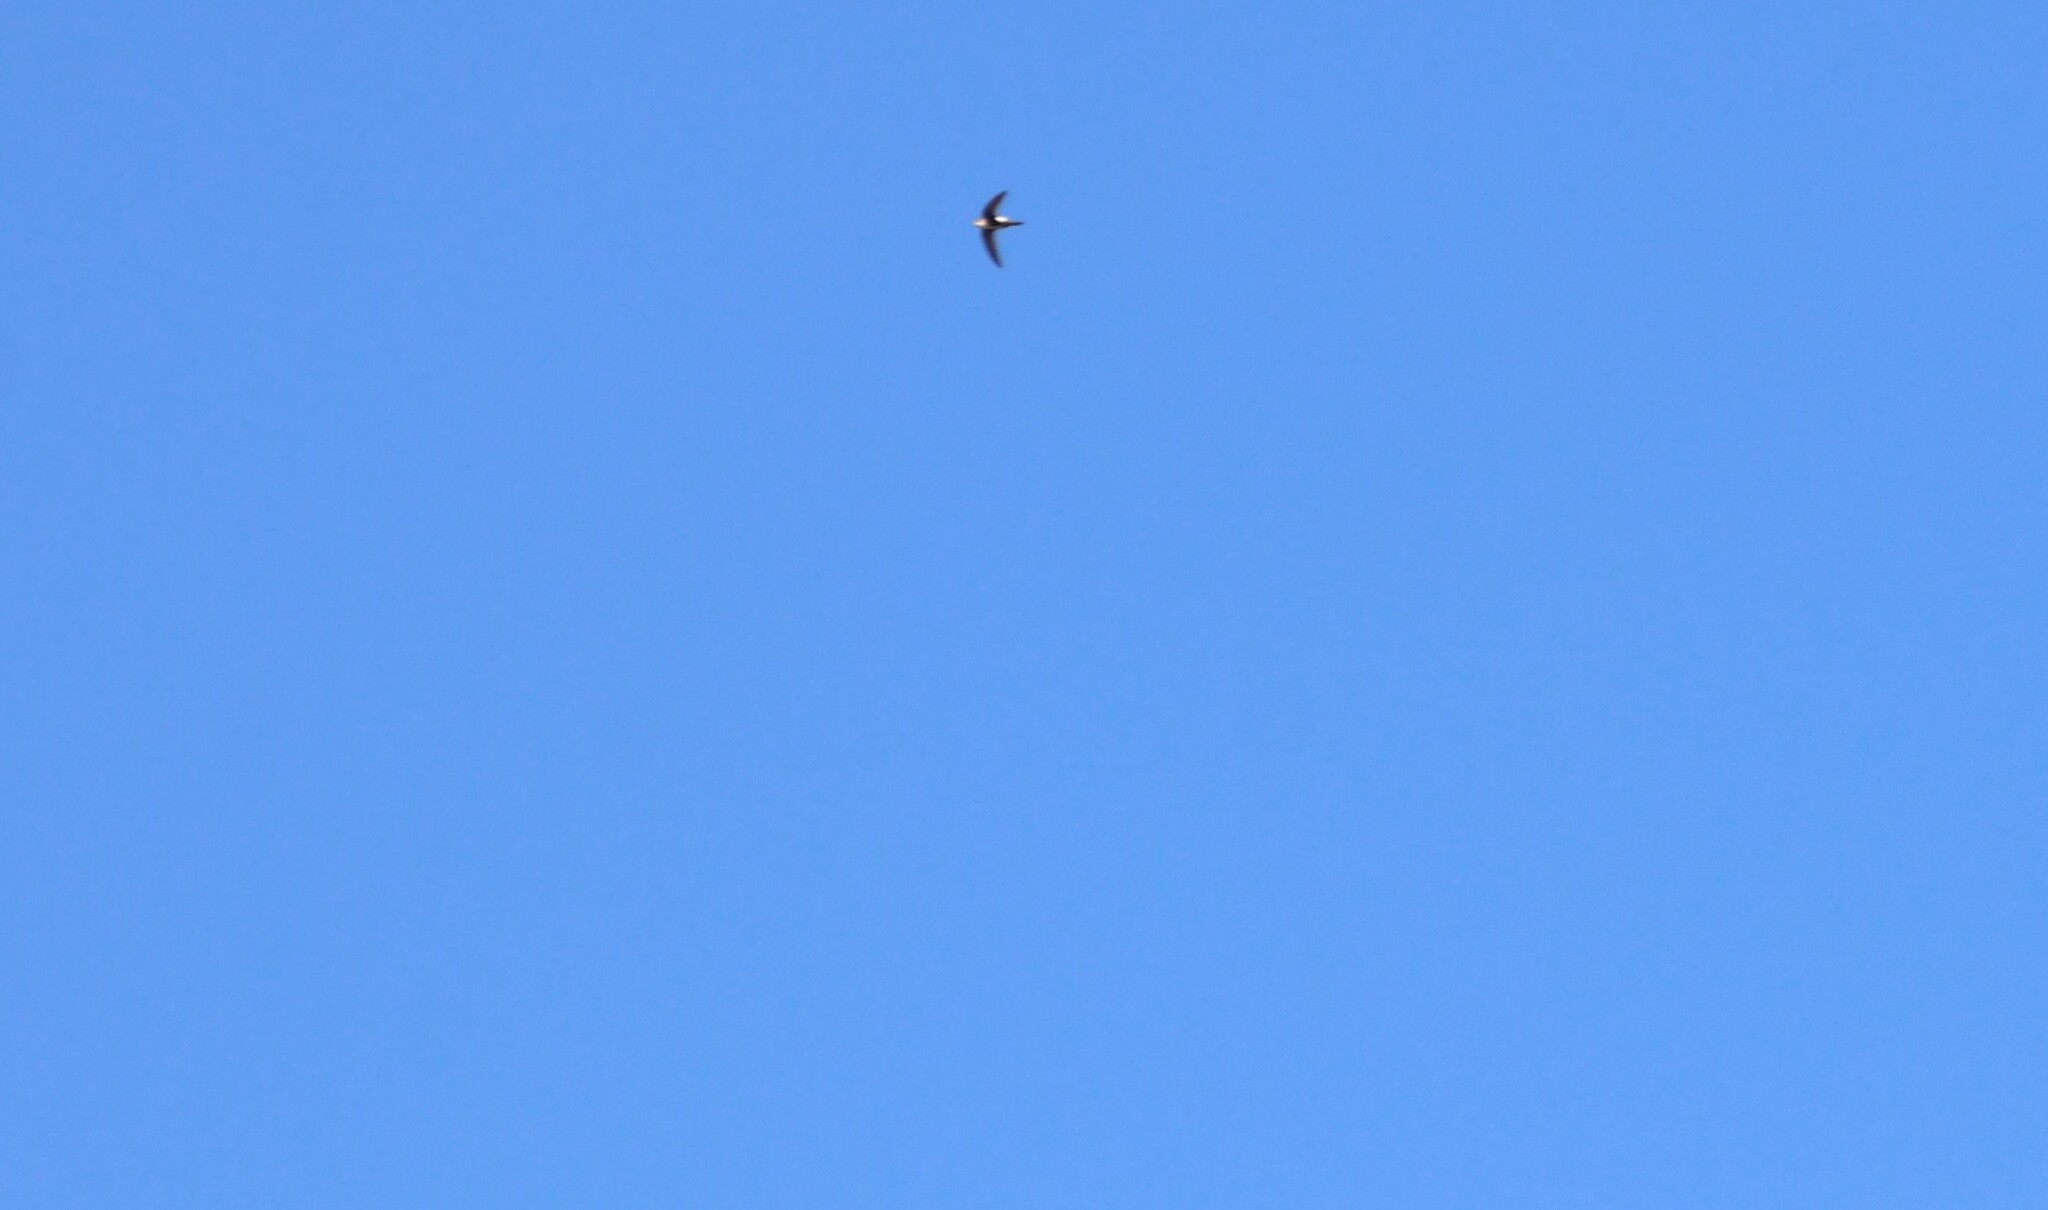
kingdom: Animalia
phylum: Chordata
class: Aves
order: Apodiformes
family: Apodidae
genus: Aeronautes
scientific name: Aeronautes saxatalis
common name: White-throated swift
